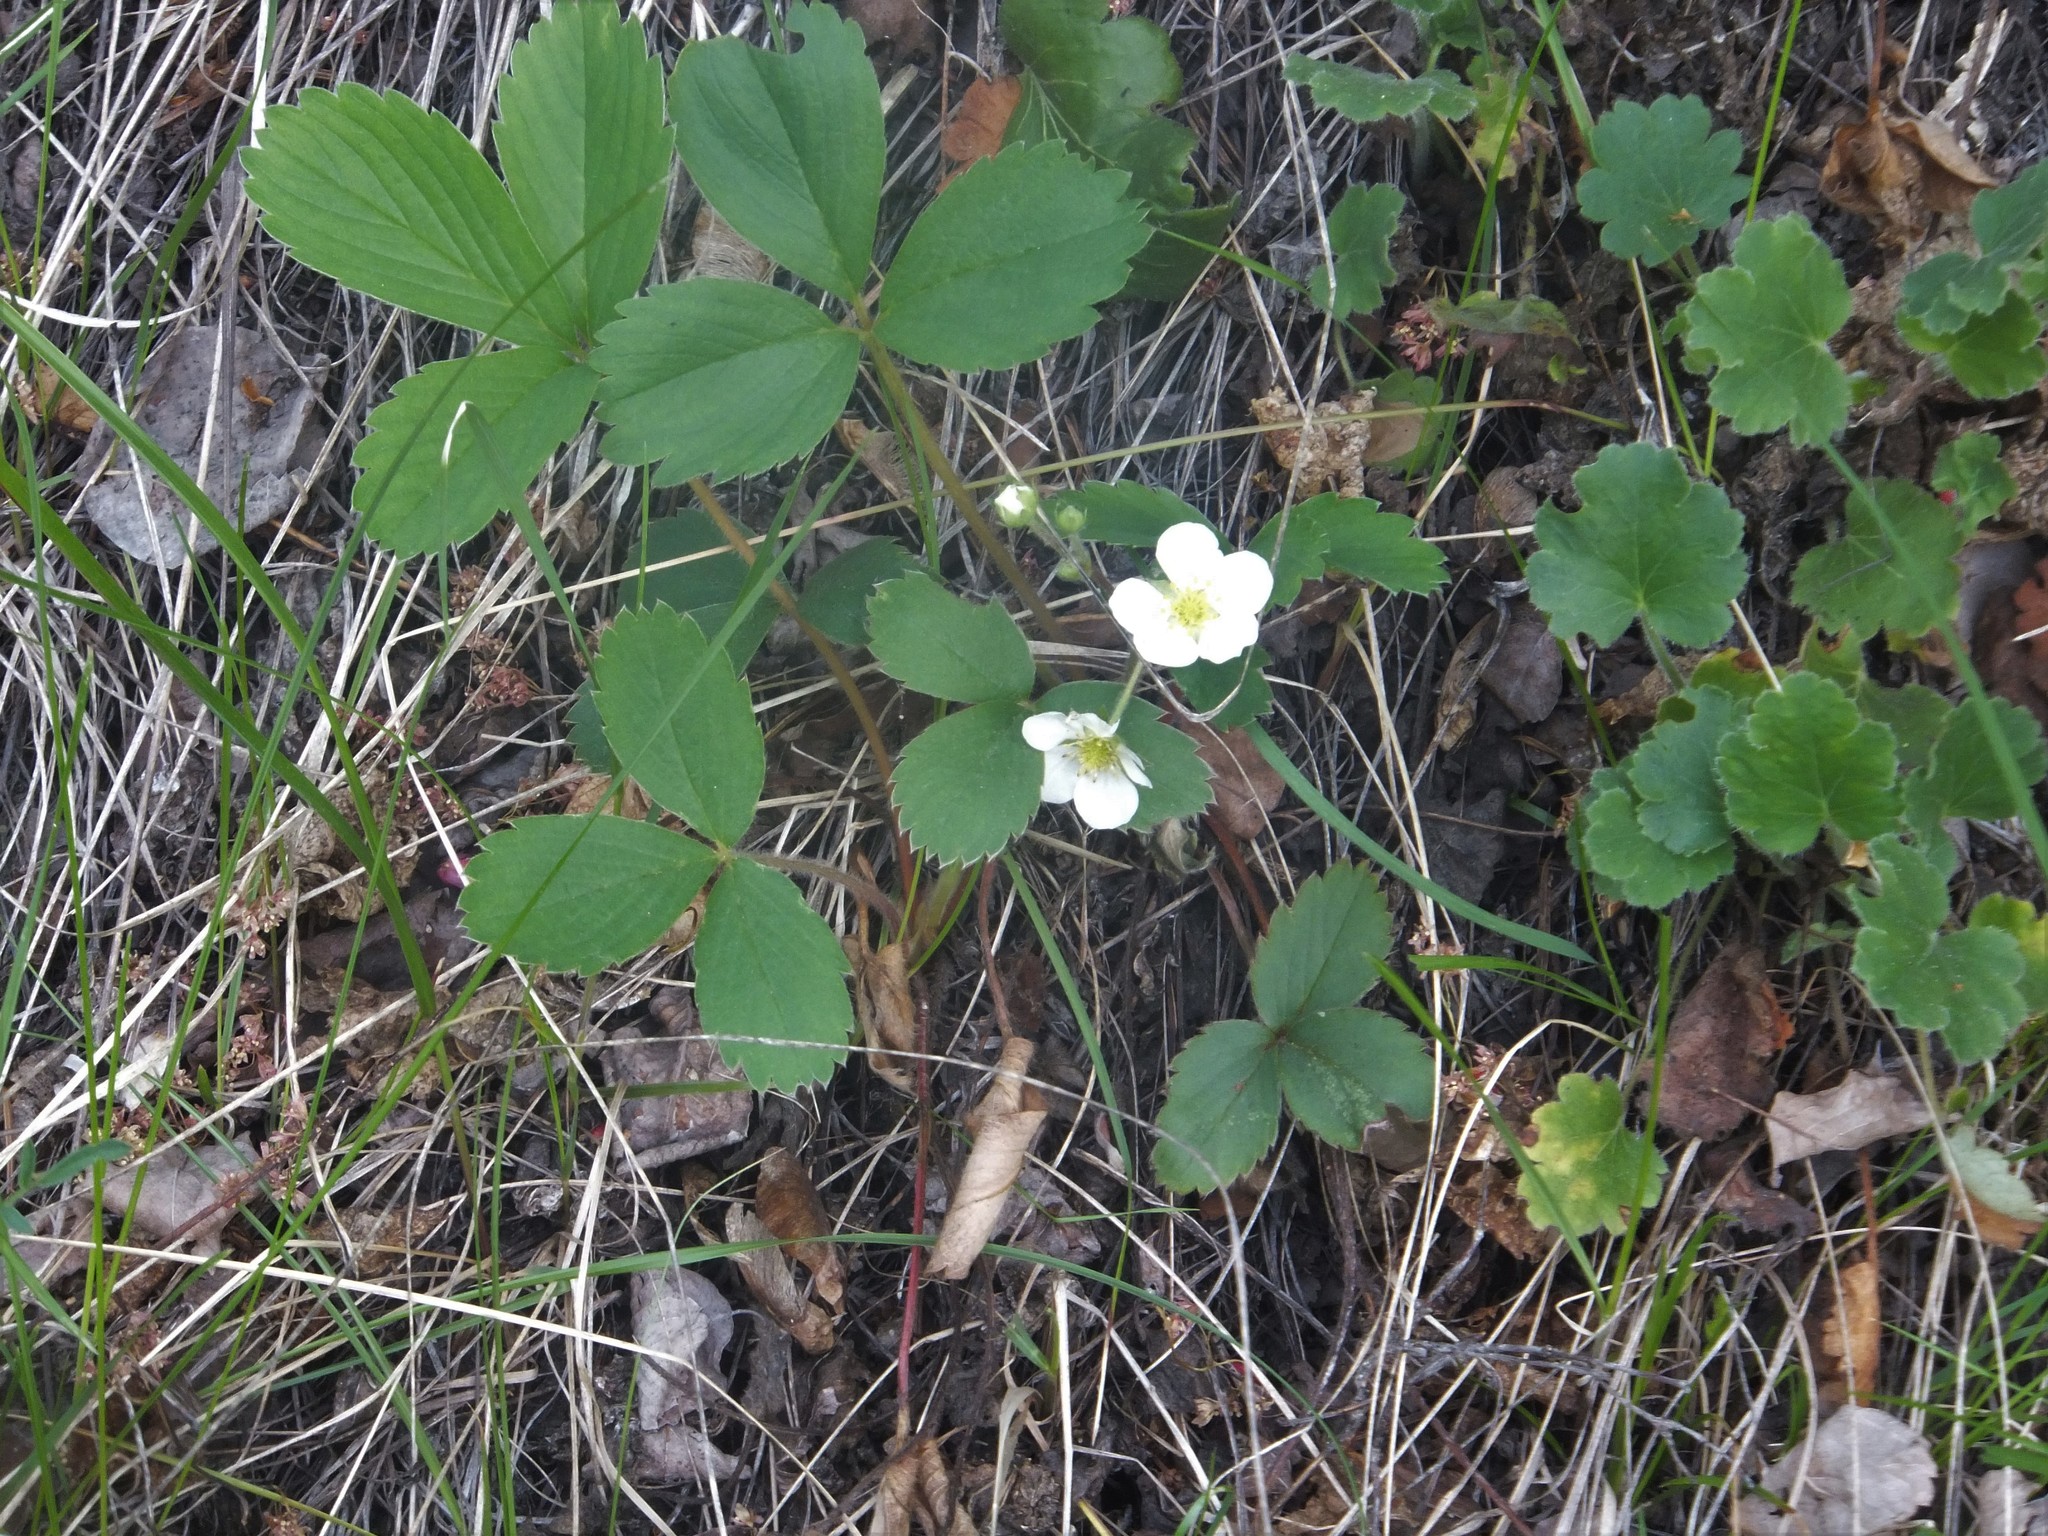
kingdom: Plantae
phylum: Tracheophyta
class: Magnoliopsida
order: Rosales
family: Rosaceae
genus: Fragaria
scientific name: Fragaria virginiana
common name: Thickleaved wild strawberry
